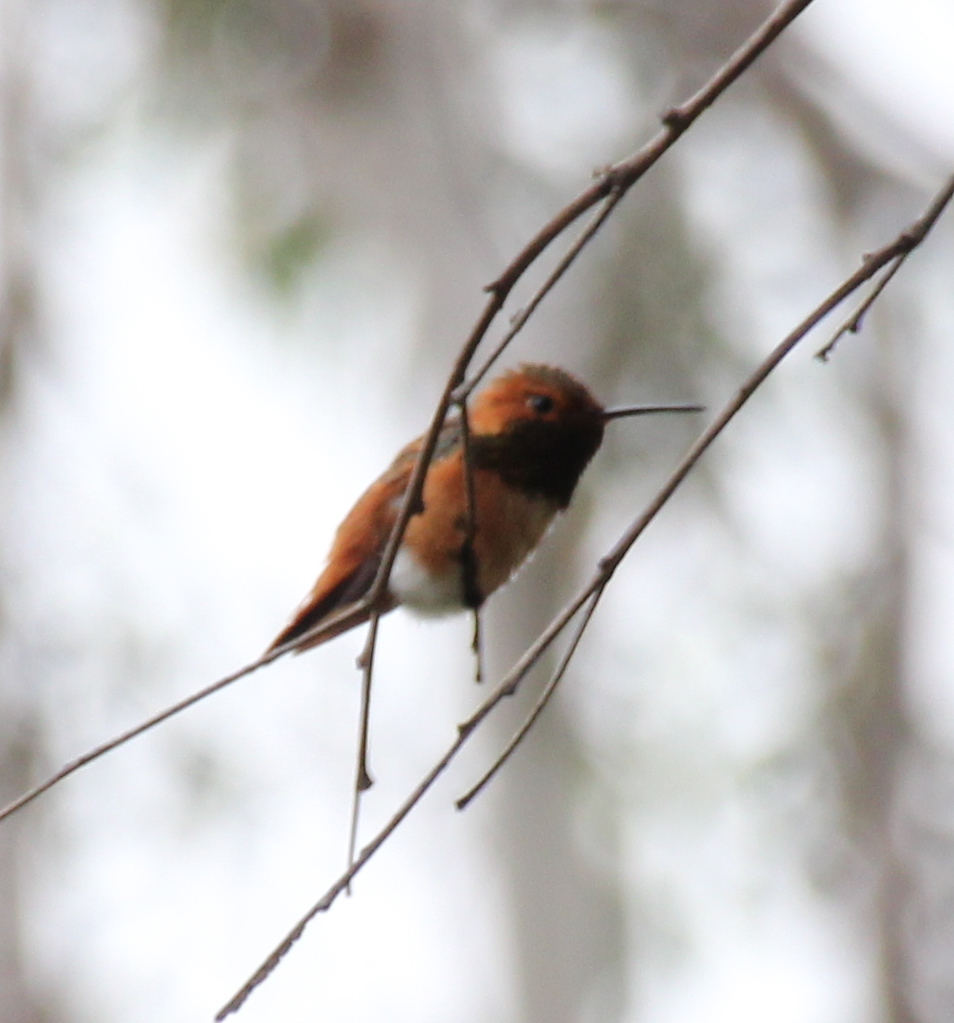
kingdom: Animalia
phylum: Chordata
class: Aves
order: Apodiformes
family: Trochilidae
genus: Selasphorus
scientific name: Selasphorus sasin
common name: Allen's hummingbird
